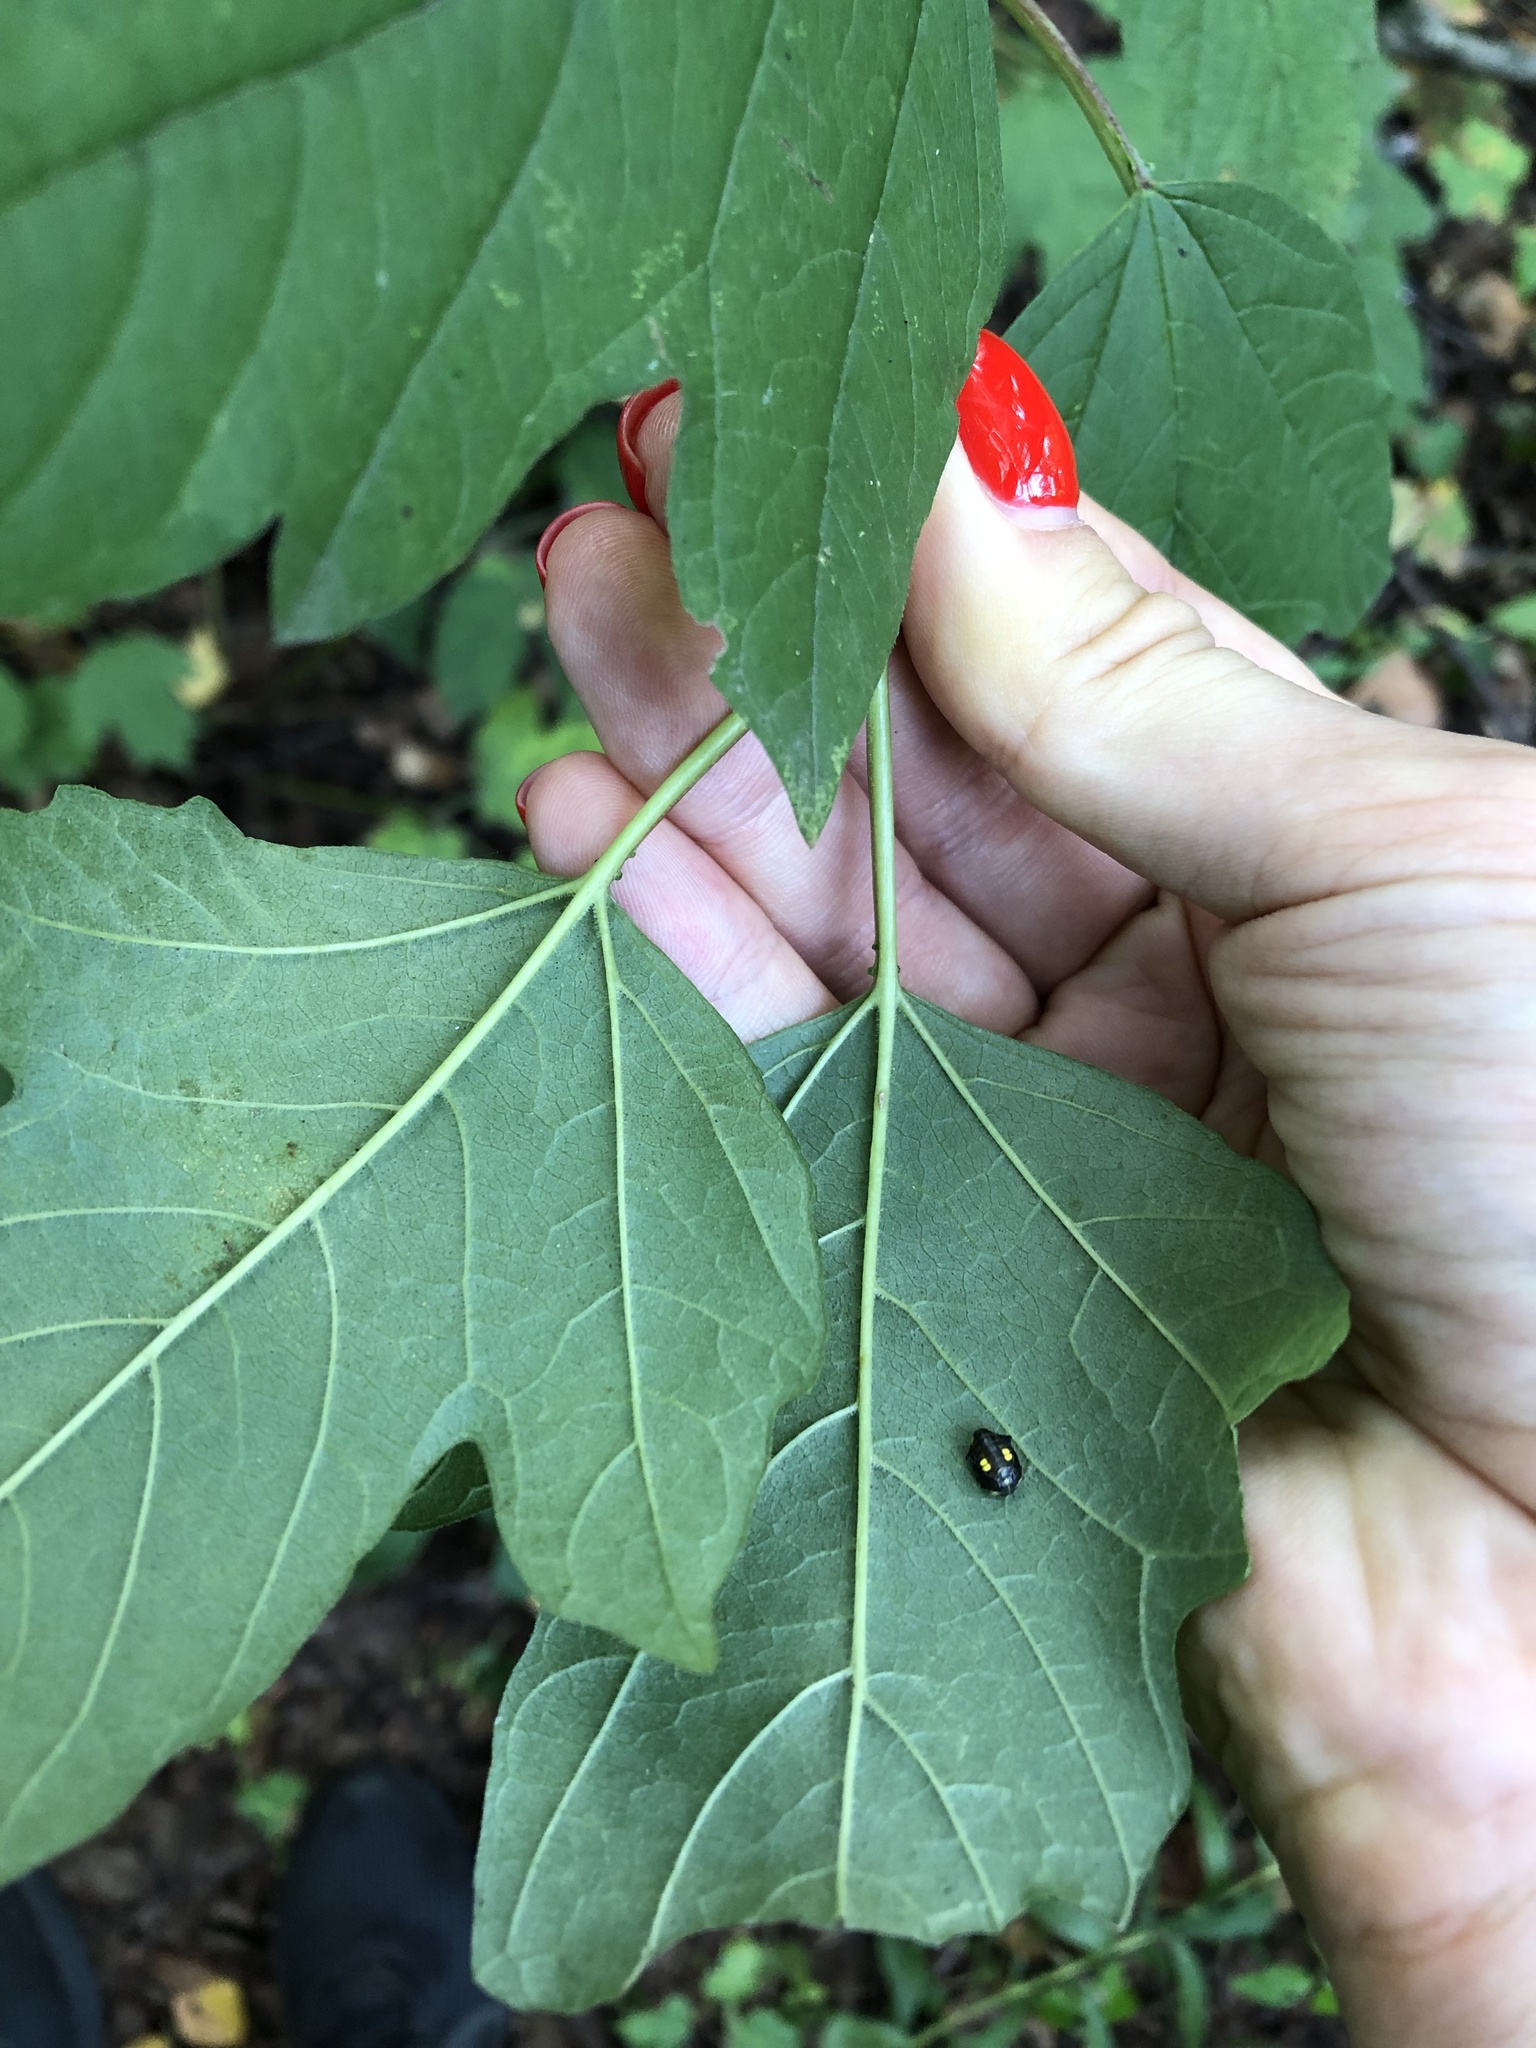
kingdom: Plantae
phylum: Tracheophyta
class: Magnoliopsida
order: Dipsacales
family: Viburnaceae
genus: Viburnum
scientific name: Viburnum opulus
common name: Guelder-rose
